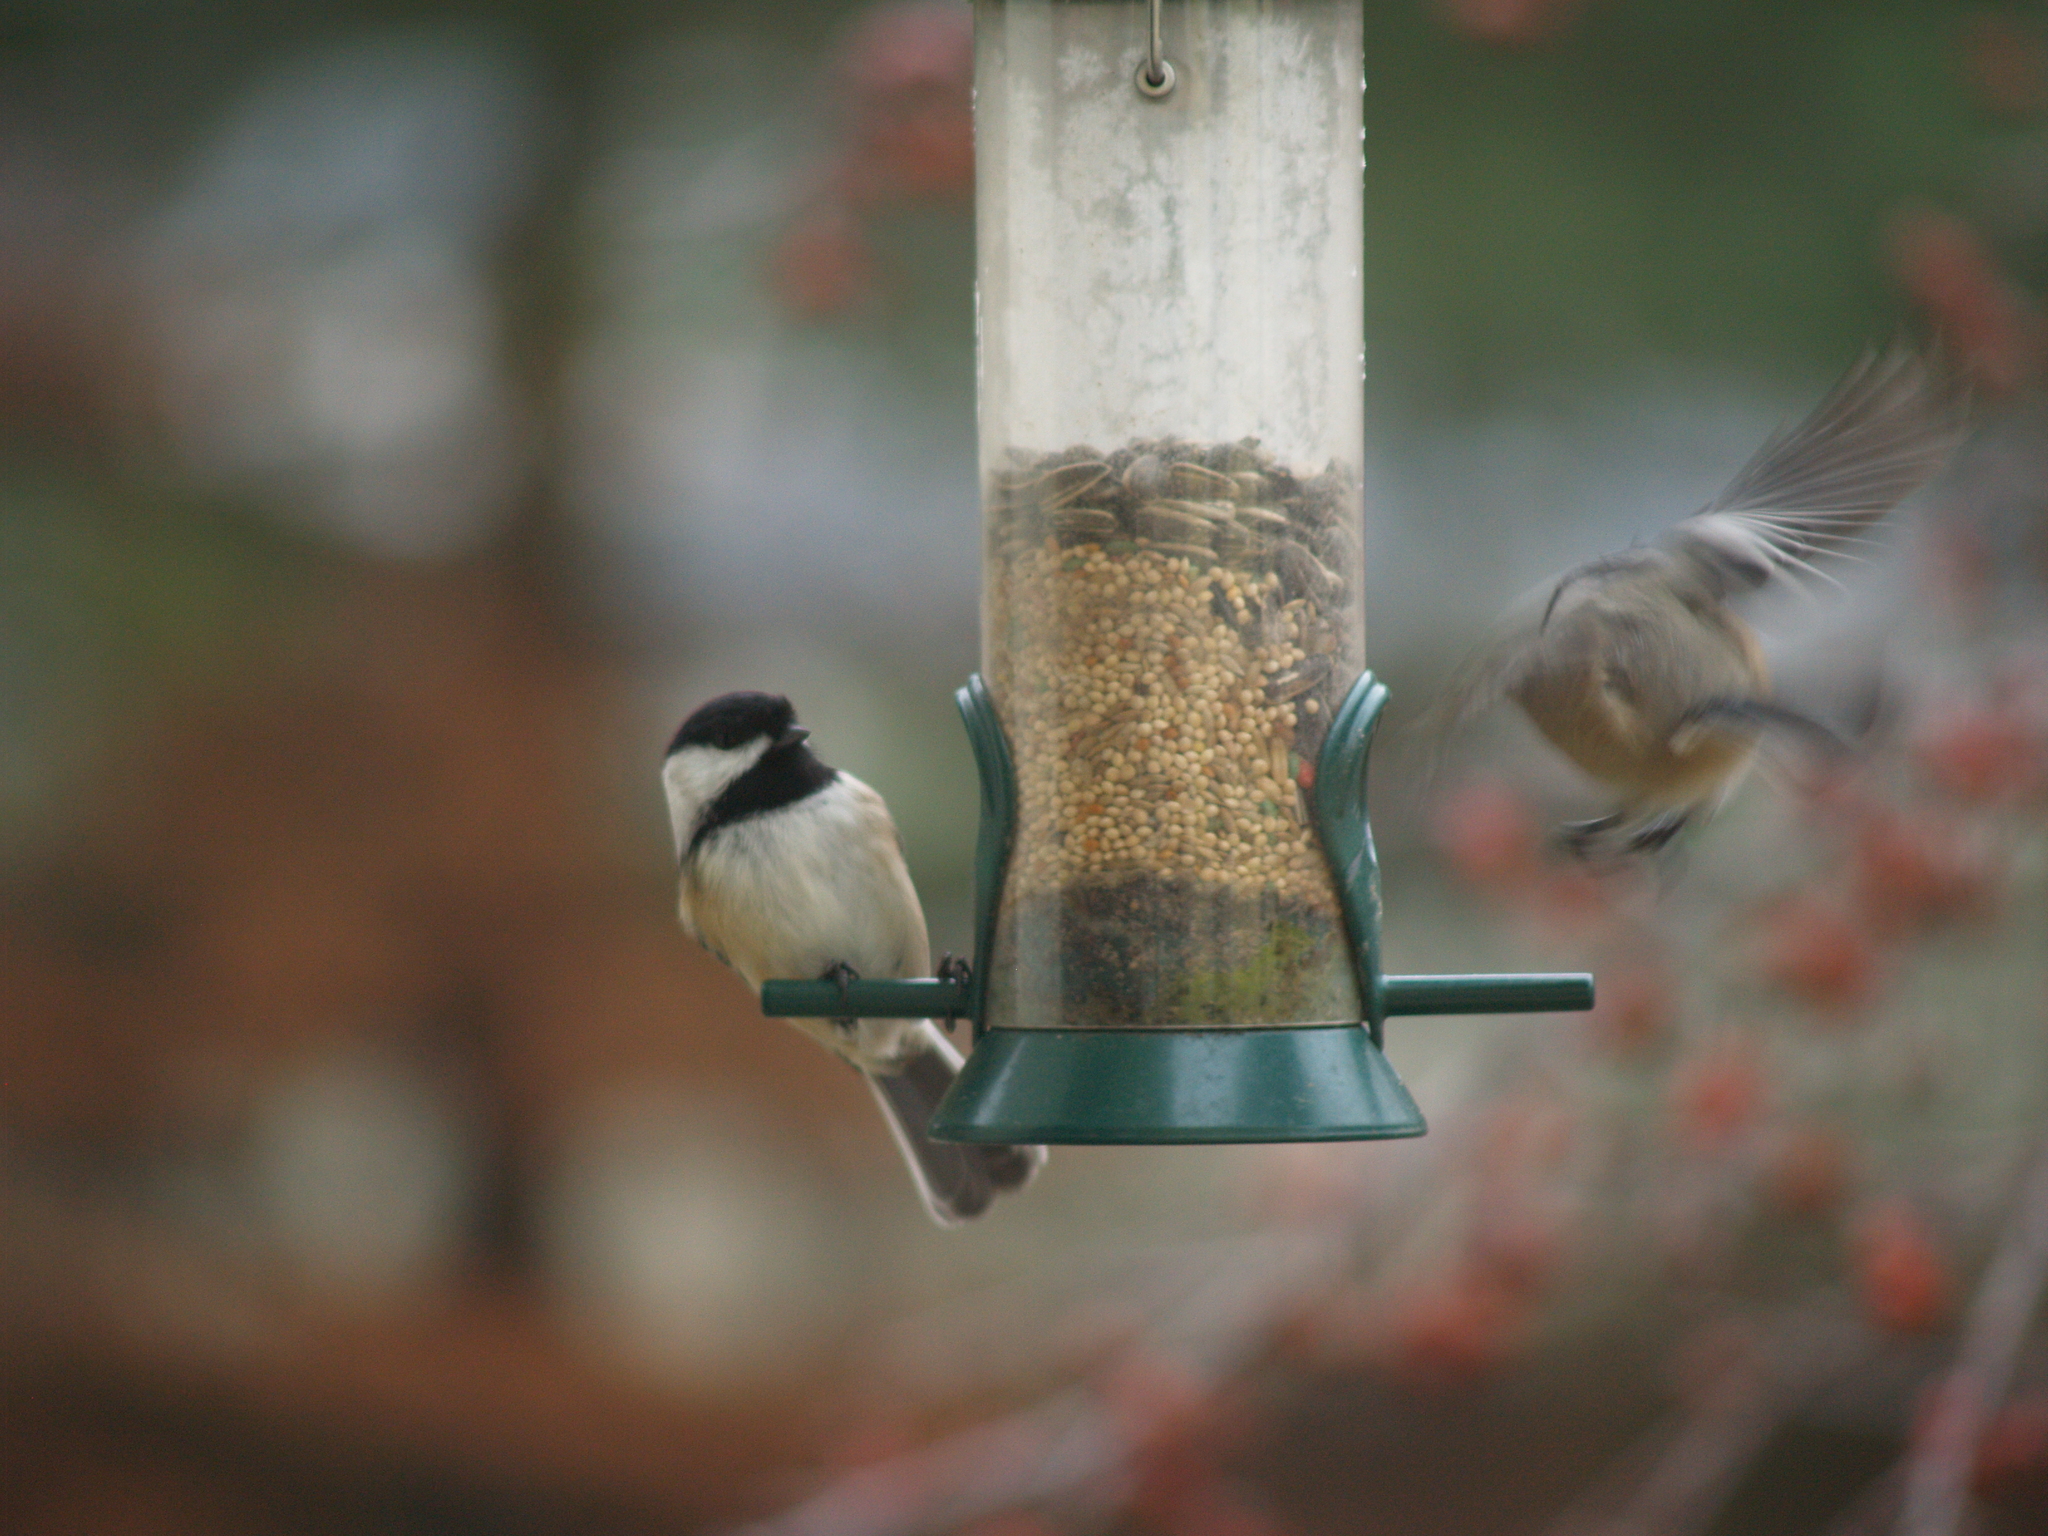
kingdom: Animalia
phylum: Chordata
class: Aves
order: Passeriformes
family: Paridae
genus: Poecile
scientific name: Poecile atricapillus
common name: Black-capped chickadee
